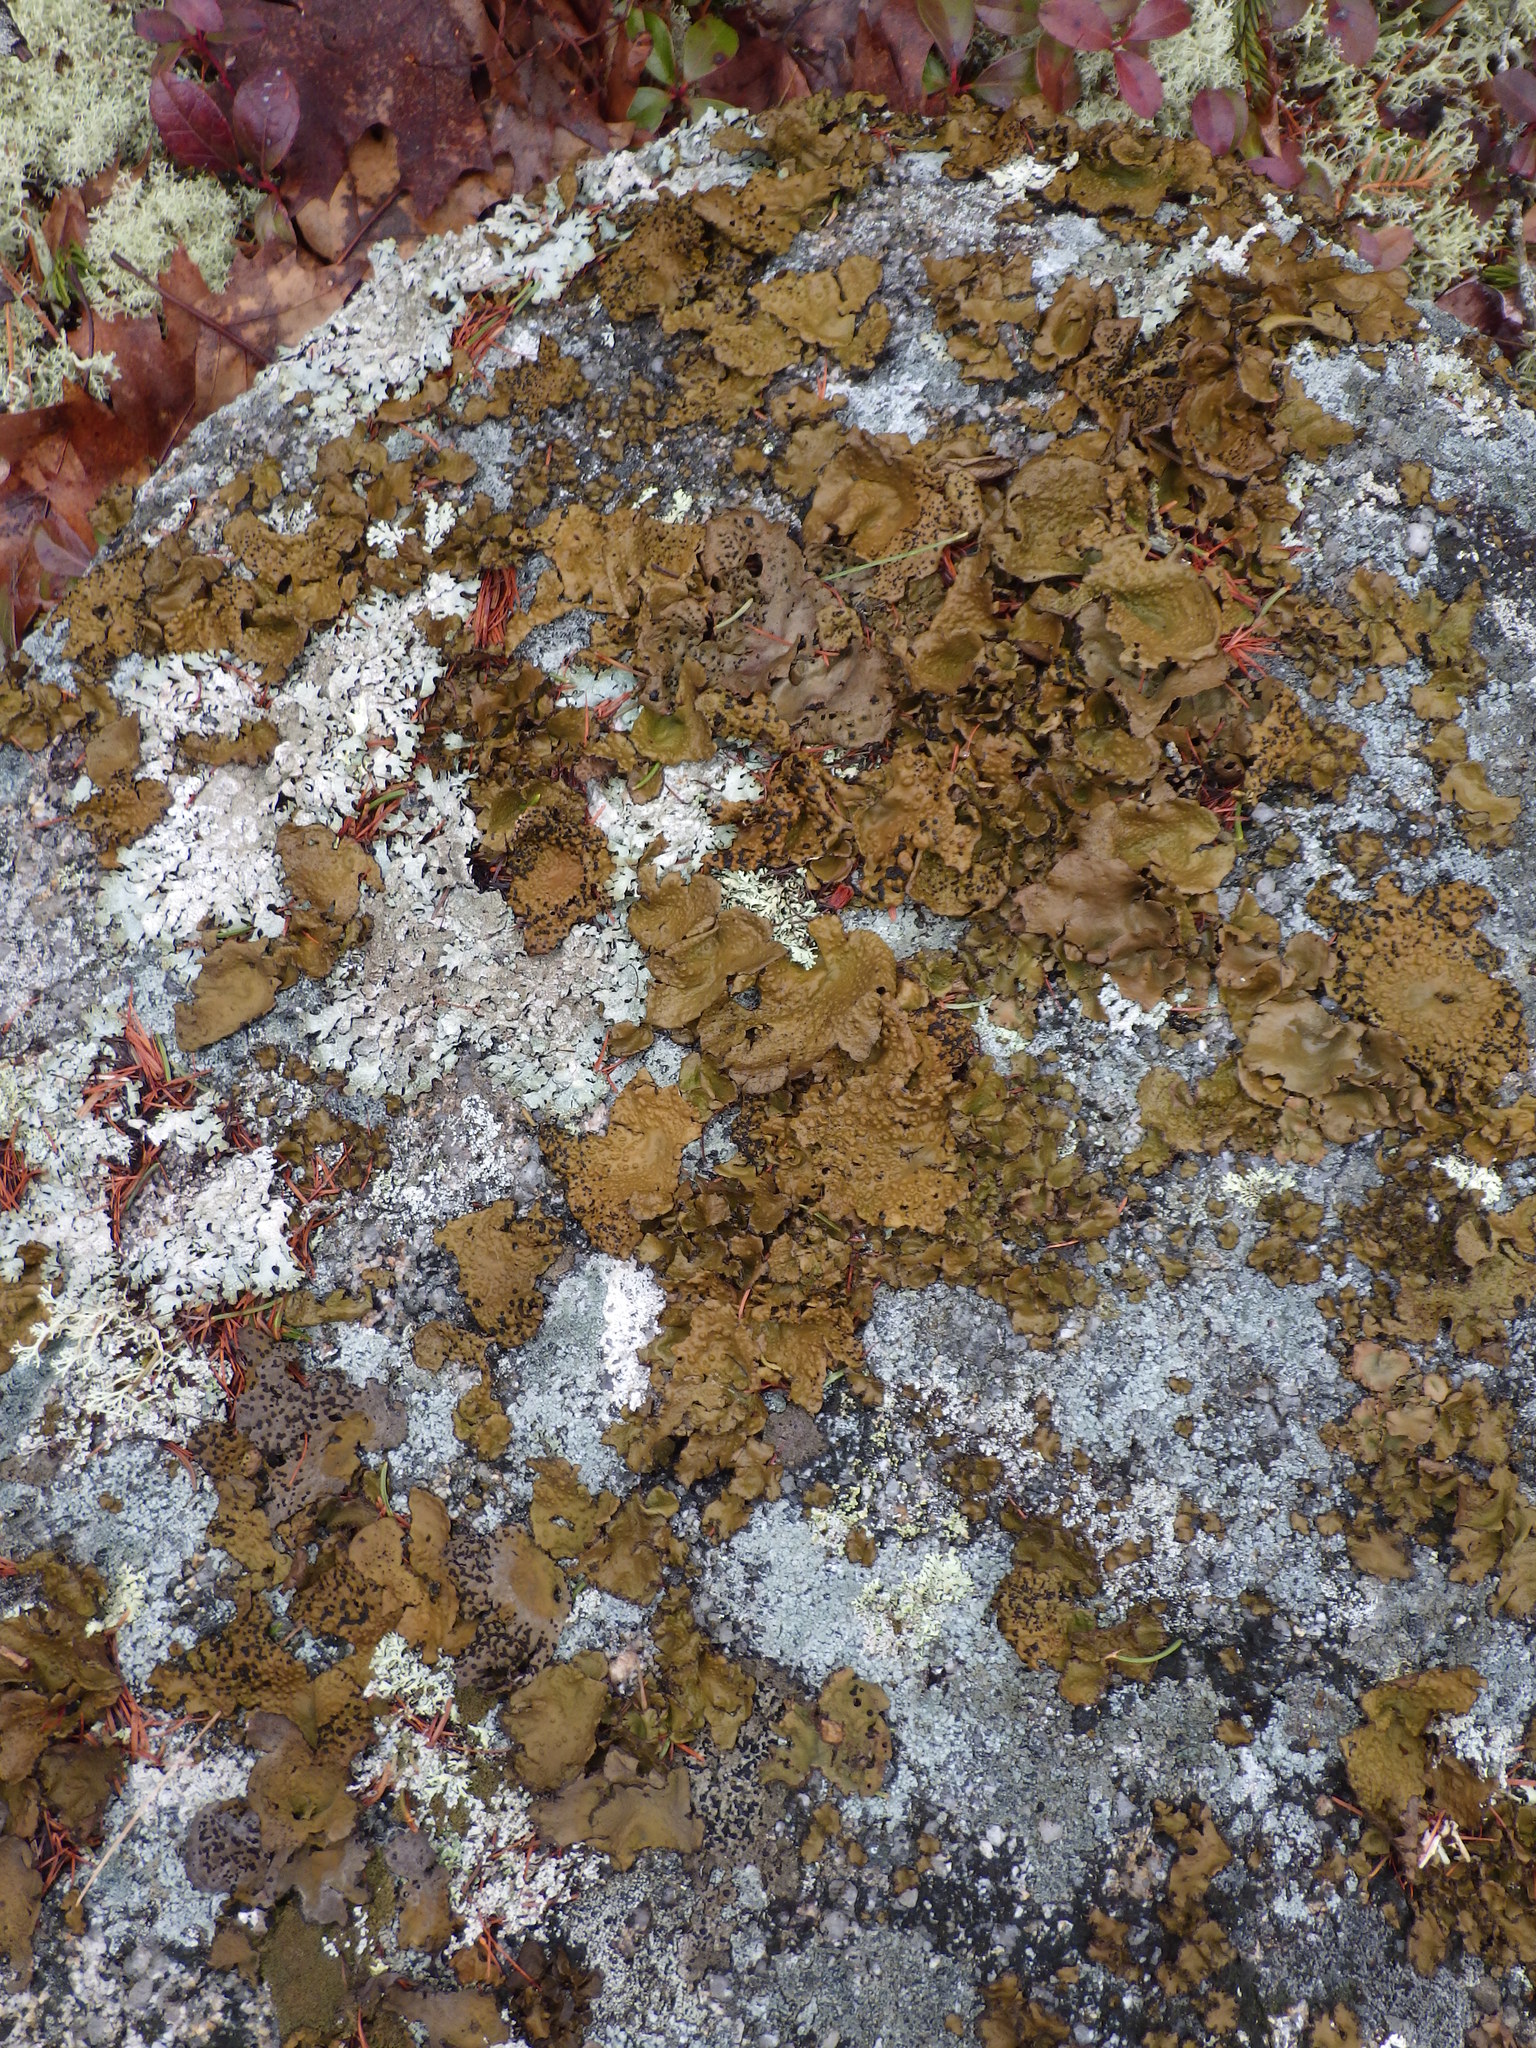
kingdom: Fungi
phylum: Ascomycota
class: Lecanoromycetes
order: Umbilicariales
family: Umbilicariaceae
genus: Lasallia
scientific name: Lasallia papulosa
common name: Common toadskin lichen
